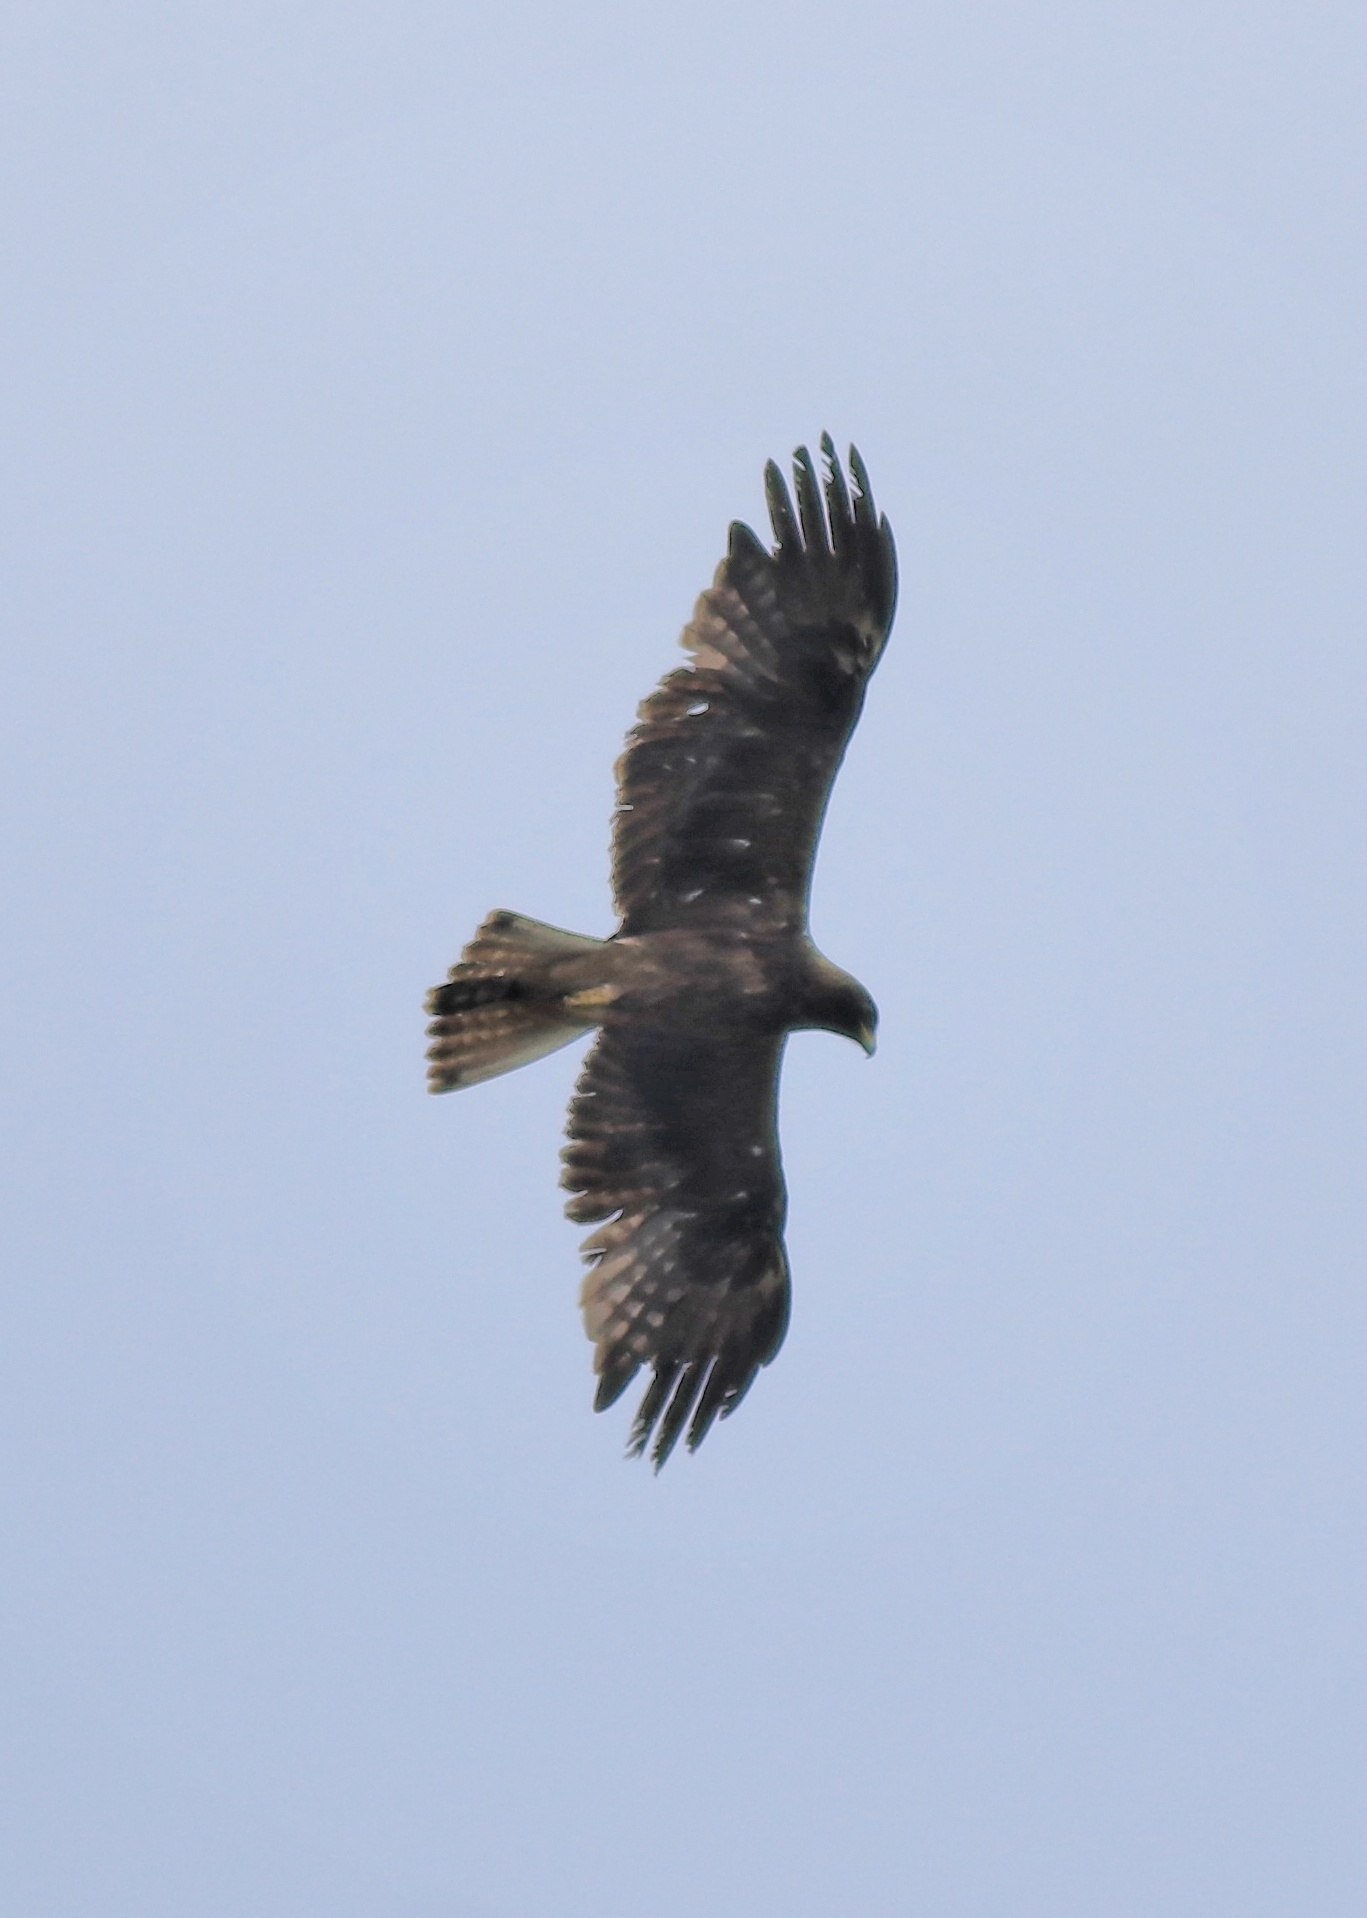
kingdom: Animalia
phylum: Chordata
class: Aves
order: Accipitriformes
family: Accipitridae
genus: Hieraaetus
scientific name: Hieraaetus pennatus
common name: Booted eagle
